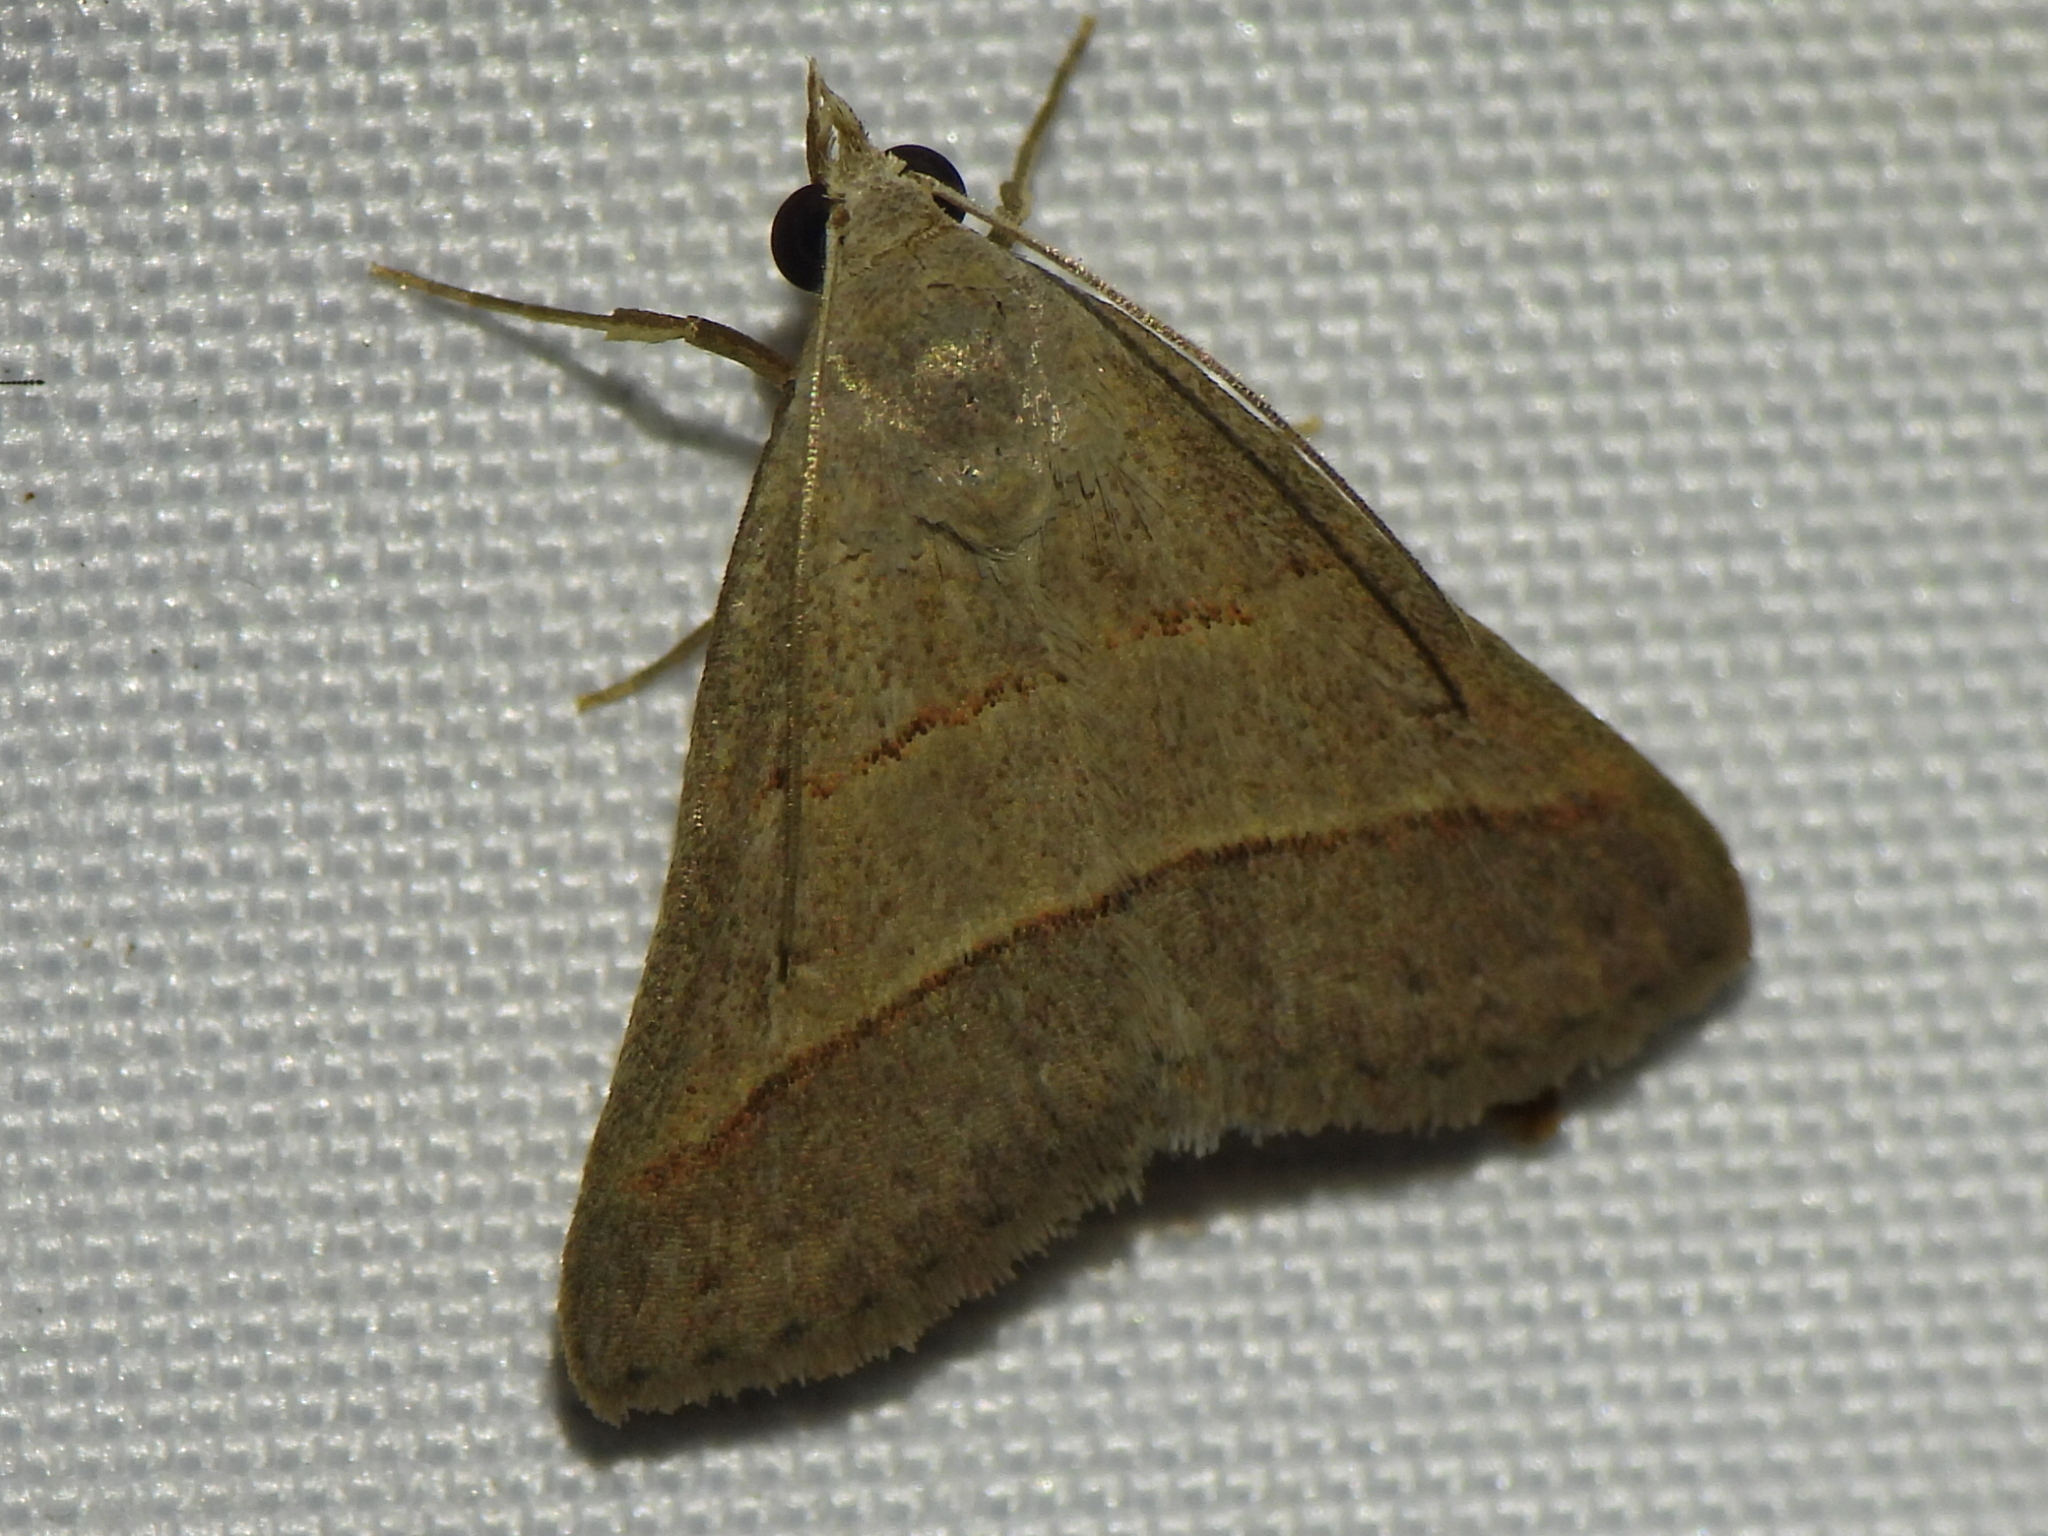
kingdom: Animalia
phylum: Arthropoda
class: Insecta
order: Lepidoptera
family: Erebidae
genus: Hemeroplanis
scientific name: Hemeroplanis parallela
